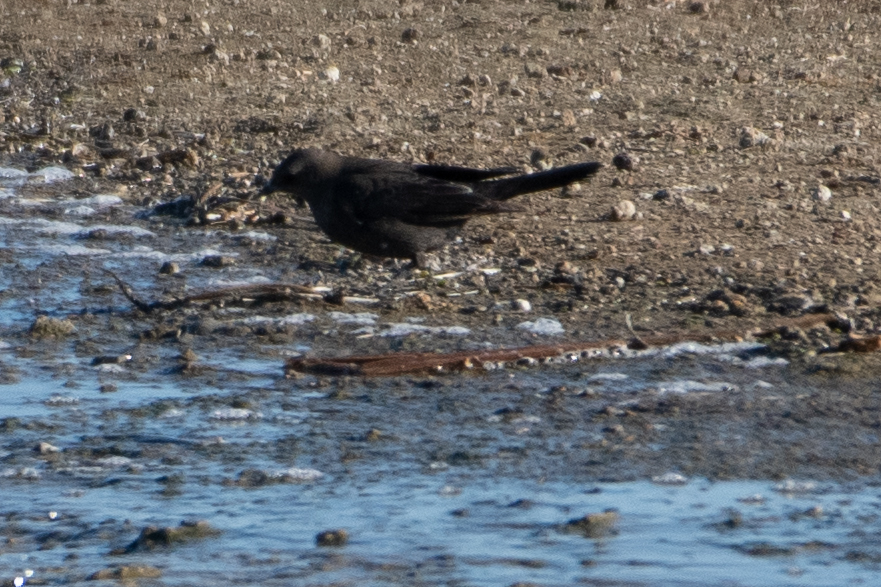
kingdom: Animalia
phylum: Chordata
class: Aves
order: Passeriformes
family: Icteridae
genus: Euphagus
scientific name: Euphagus cyanocephalus
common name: Brewer's blackbird
